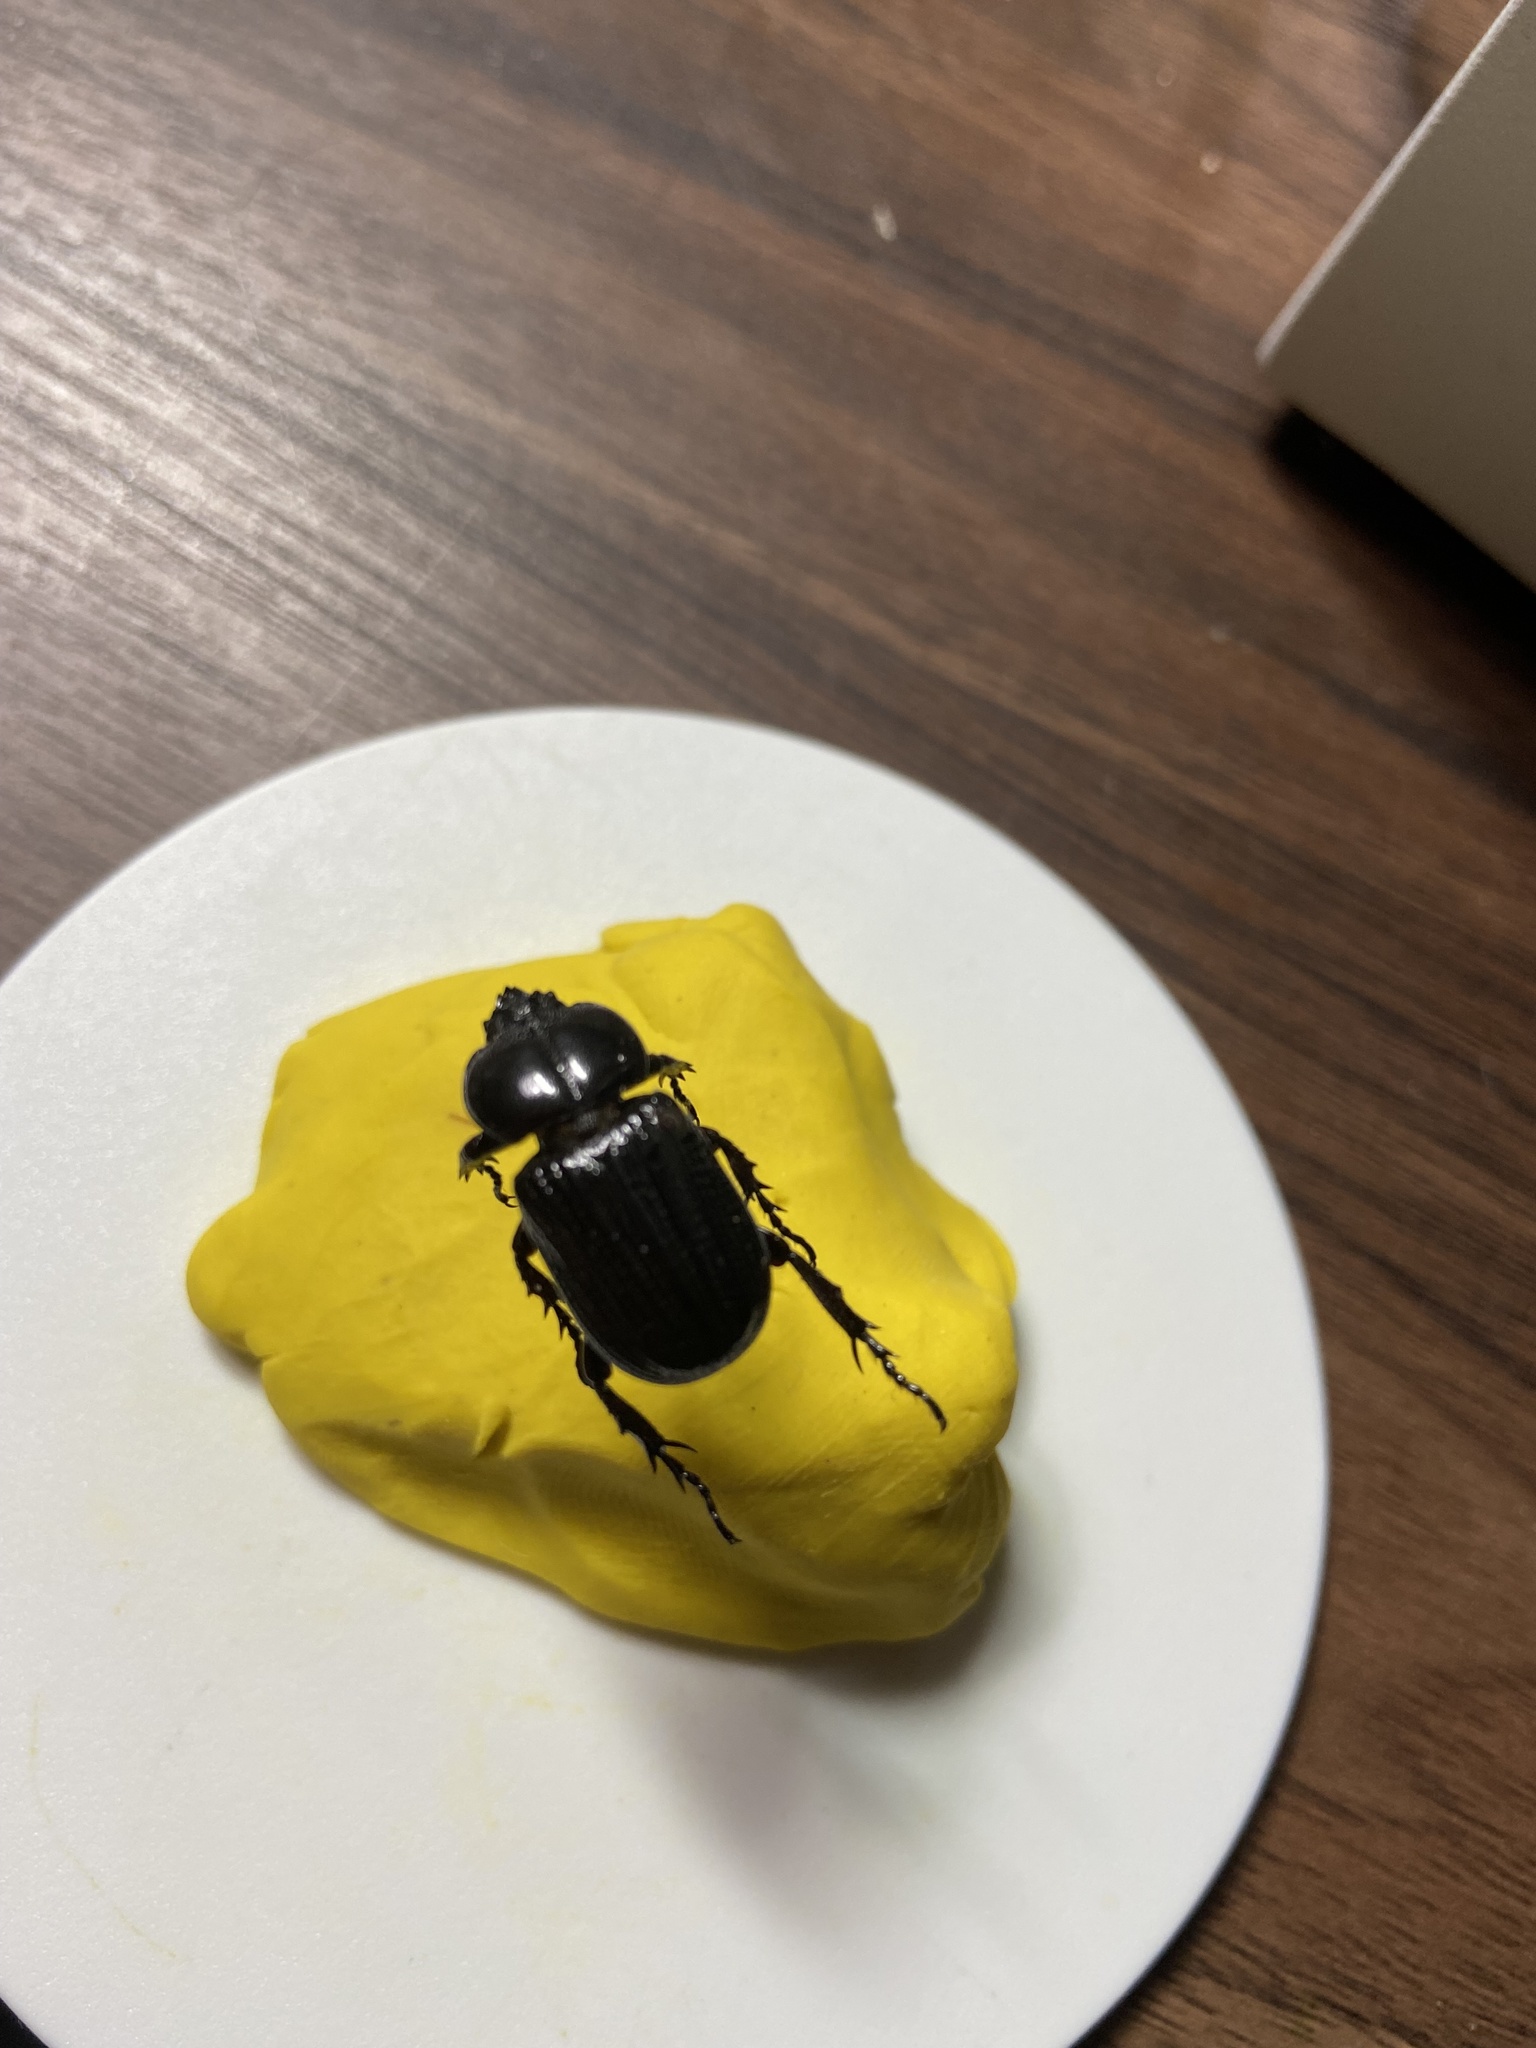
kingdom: Animalia
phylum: Arthropoda
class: Insecta
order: Coleoptera
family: Scarabaeidae
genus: Phileurus
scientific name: Phileurus valgus
